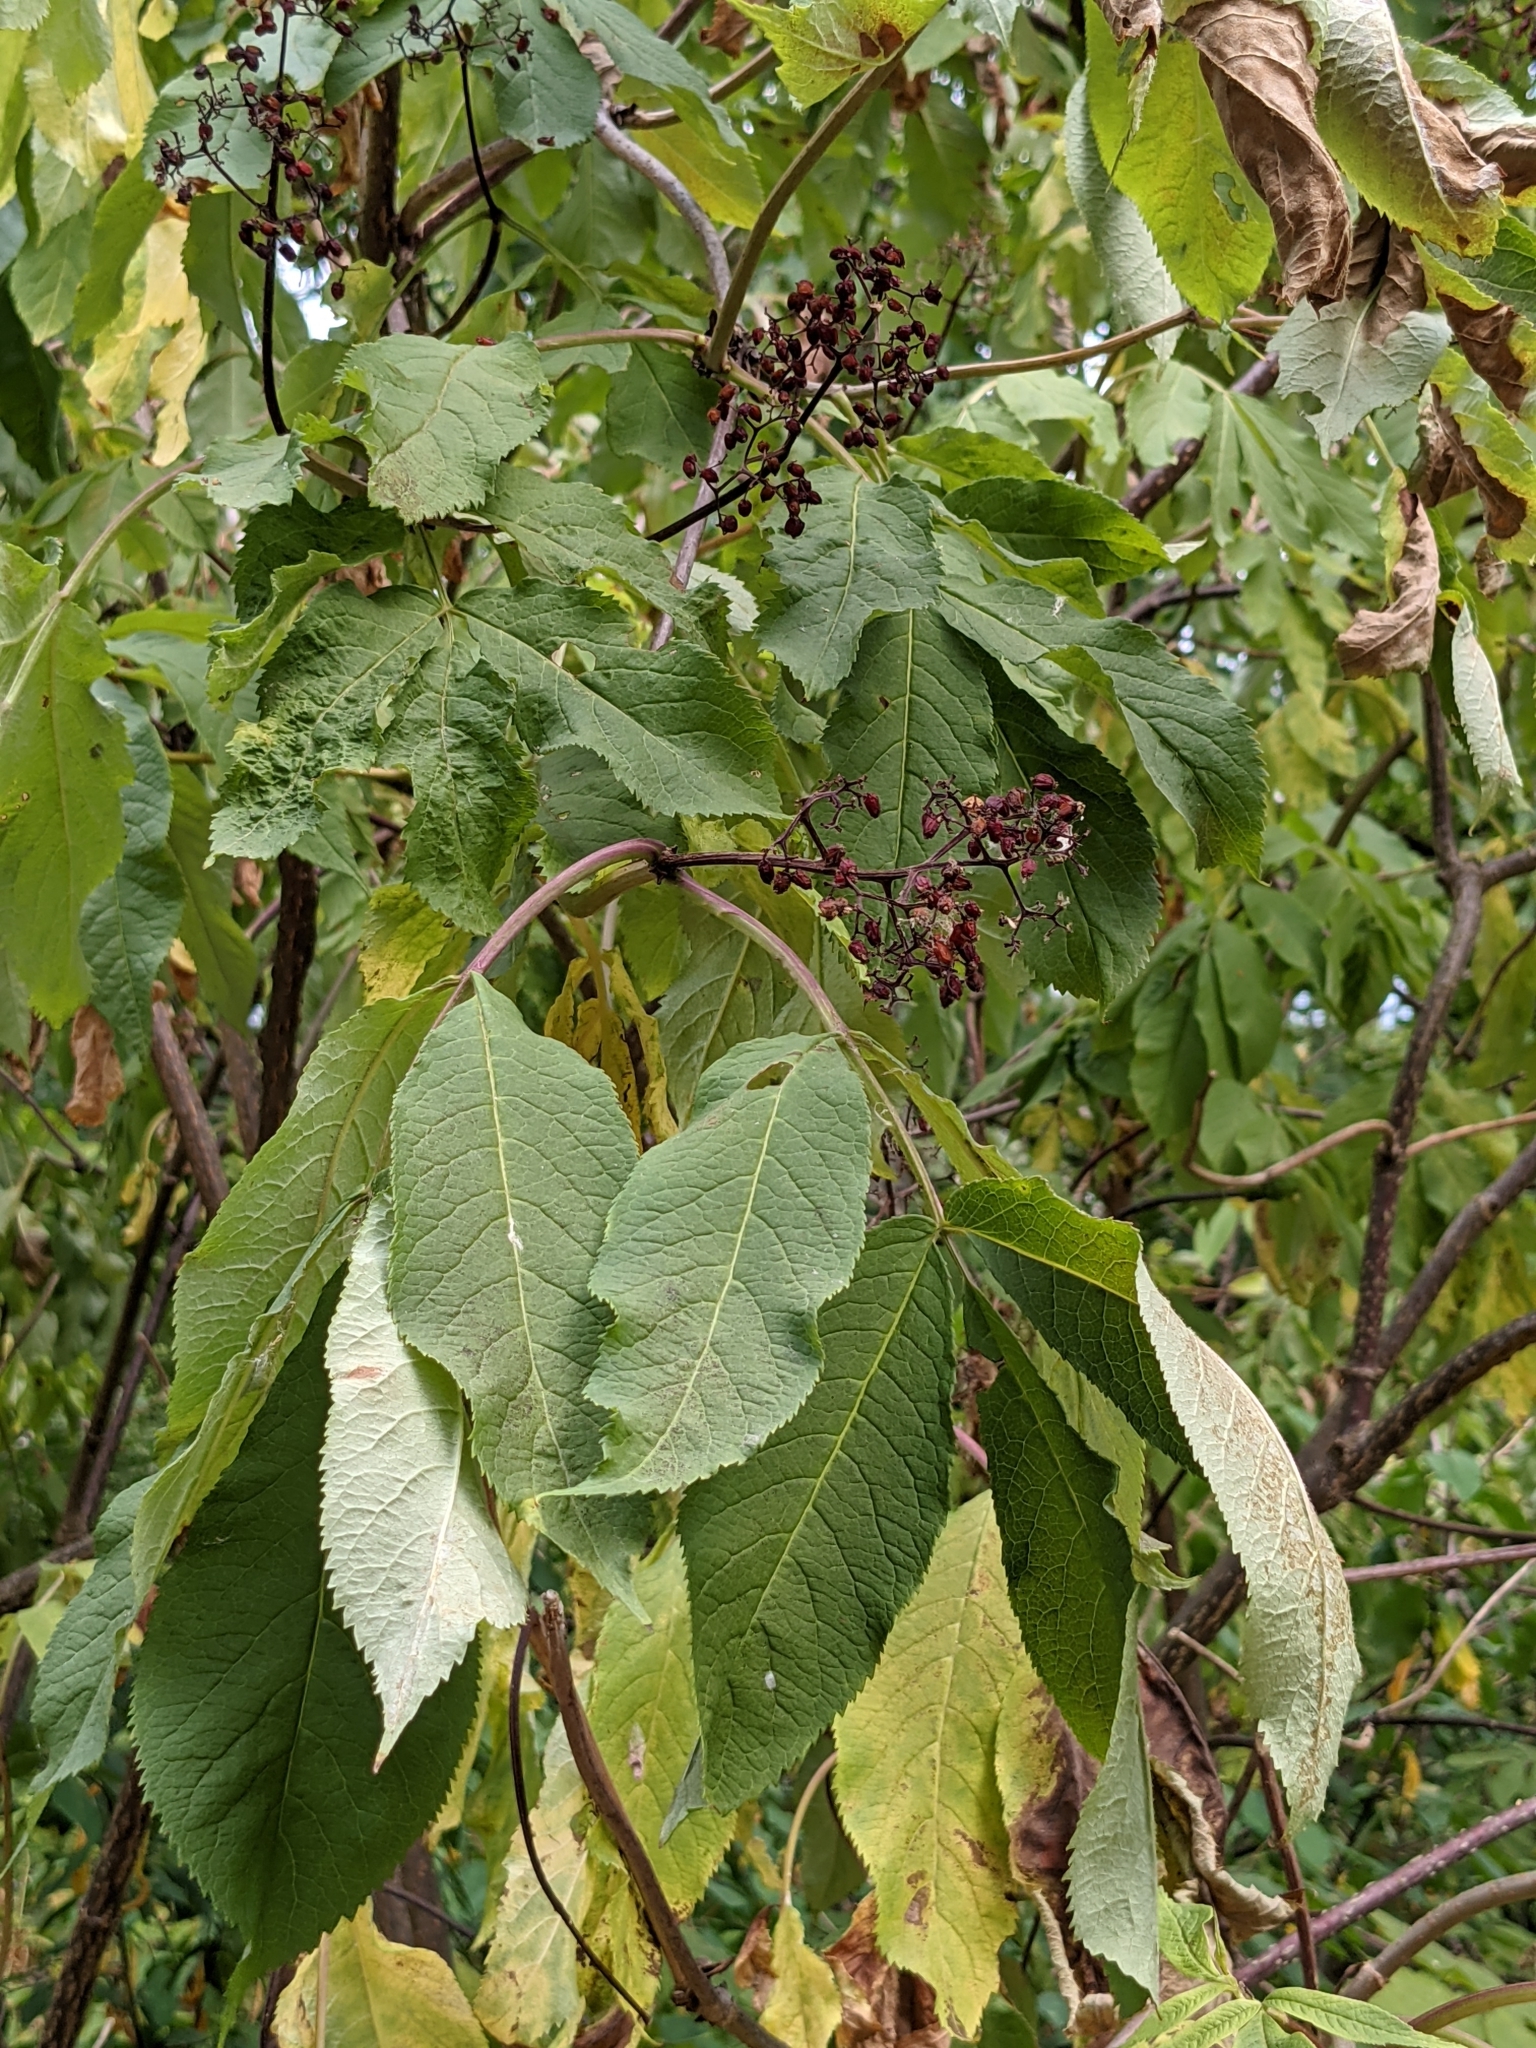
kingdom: Plantae
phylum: Tracheophyta
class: Magnoliopsida
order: Dipsacales
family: Viburnaceae
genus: Sambucus
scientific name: Sambucus racemosa
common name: Red-berried elder
